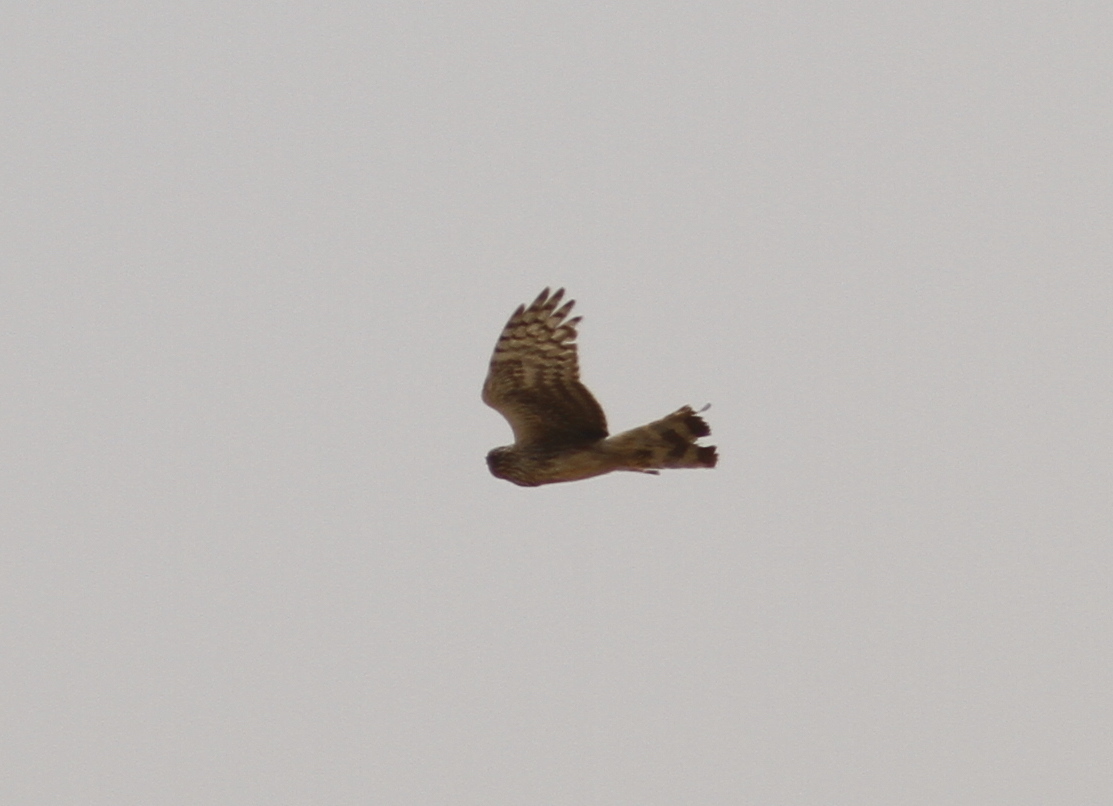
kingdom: Animalia
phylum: Chordata
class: Aves
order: Accipitriformes
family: Accipitridae
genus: Circus
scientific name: Circus cyaneus
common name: Hen harrier
